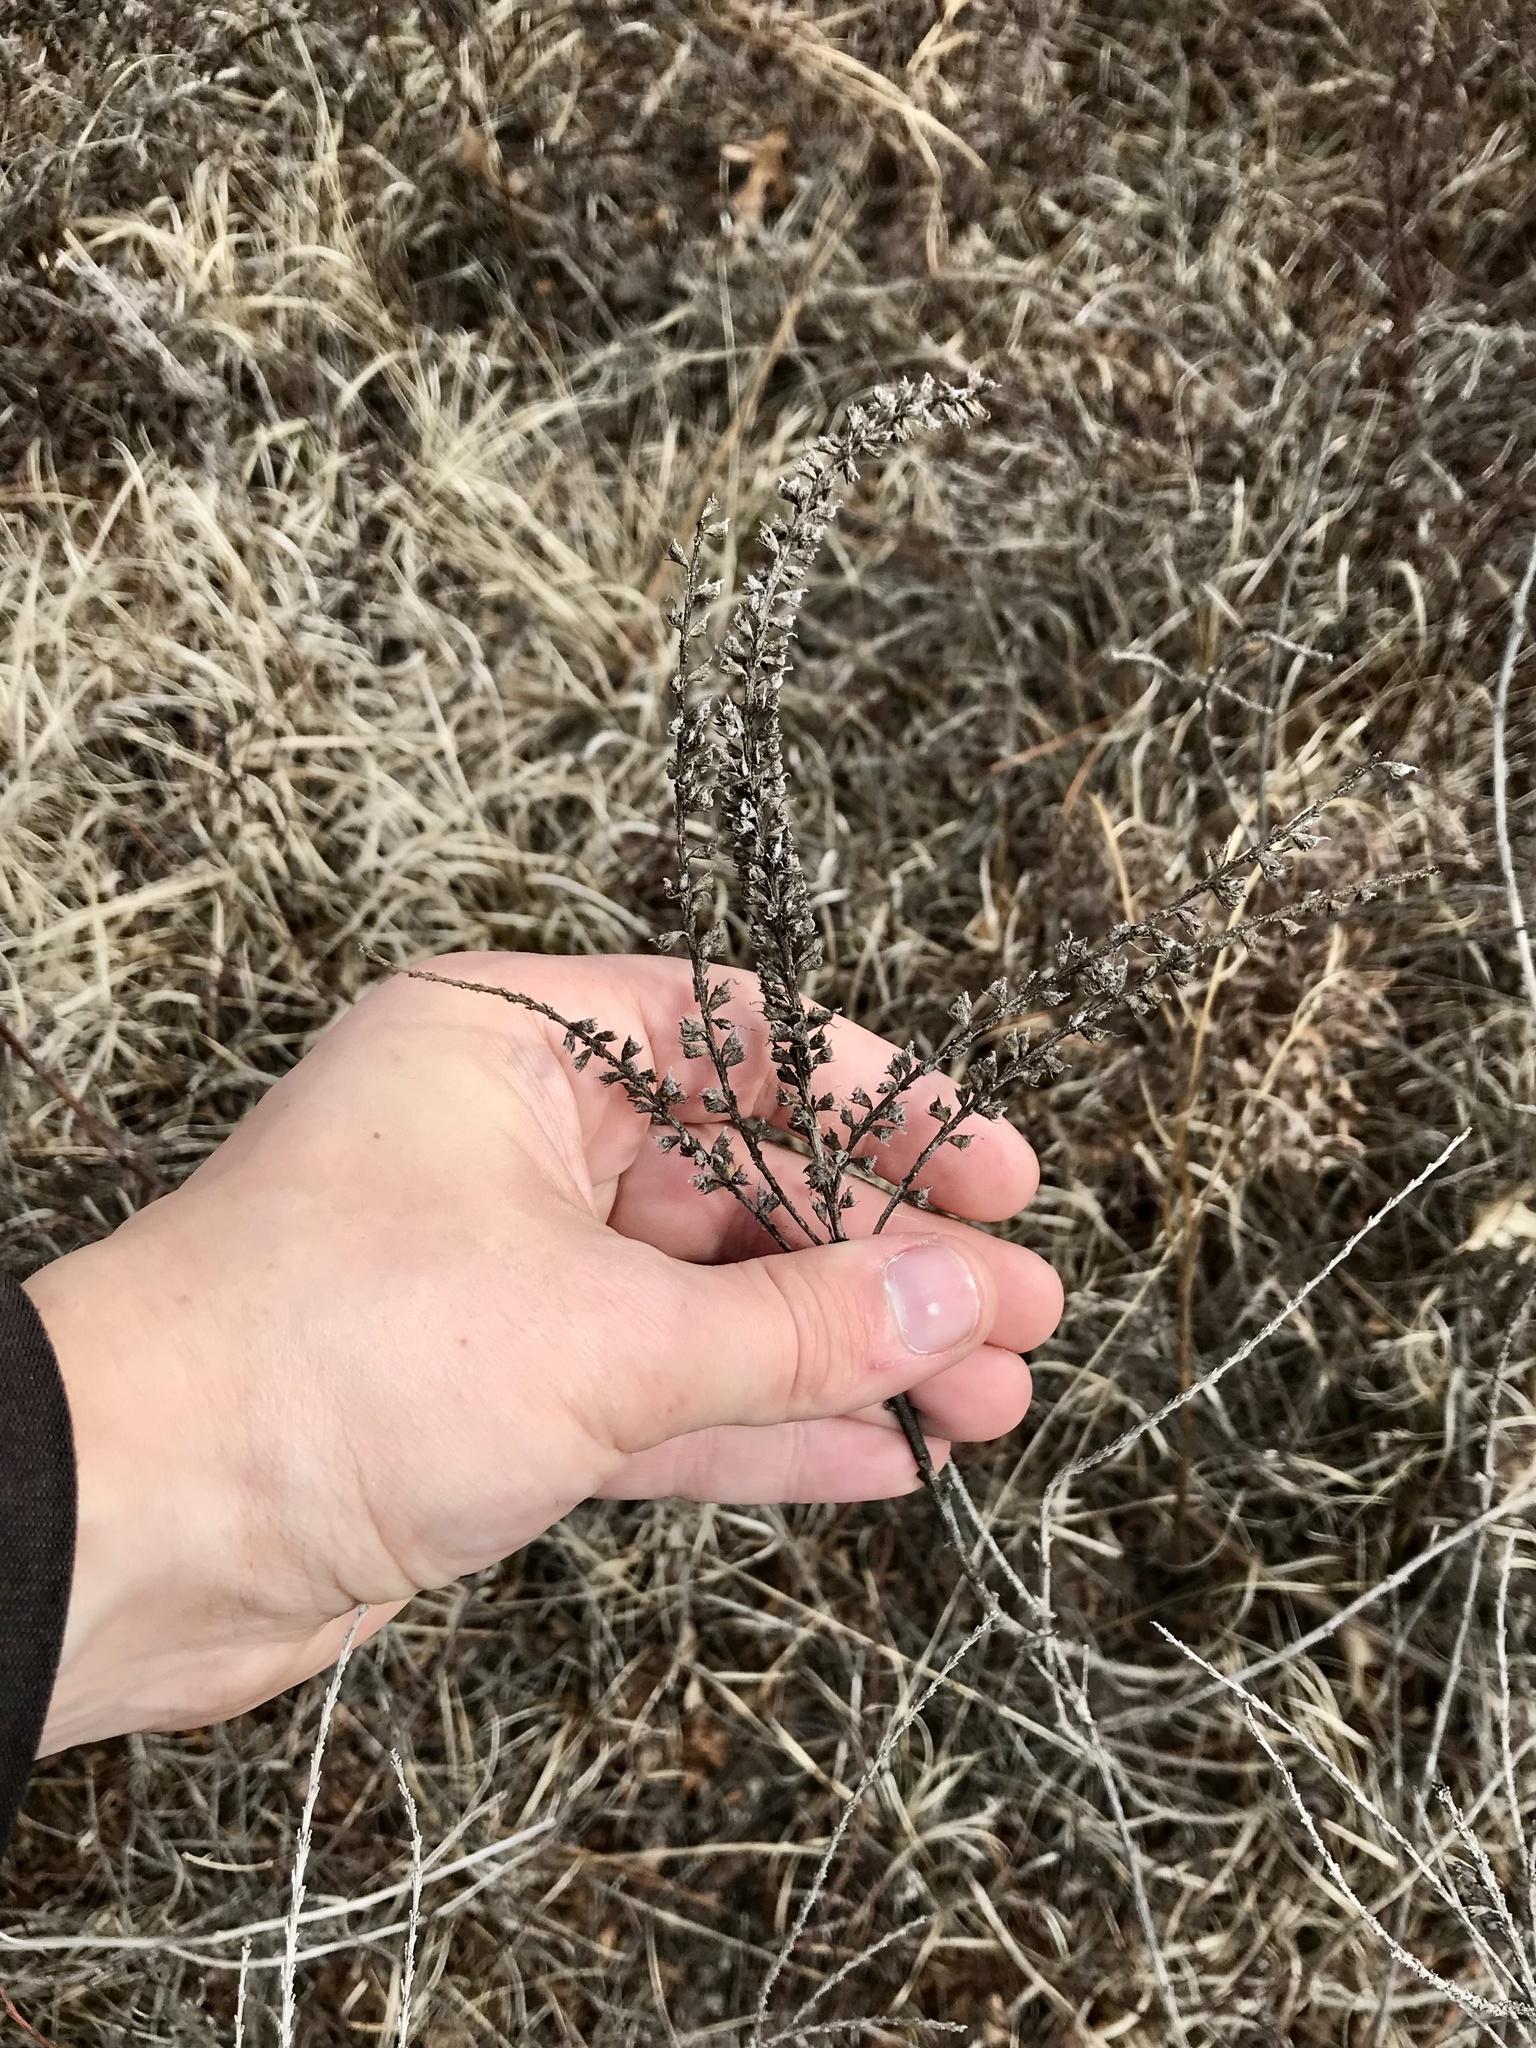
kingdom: Plantae
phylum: Tracheophyta
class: Magnoliopsida
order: Fabales
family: Fabaceae
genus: Amorpha
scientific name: Amorpha canescens
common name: Leadplant
